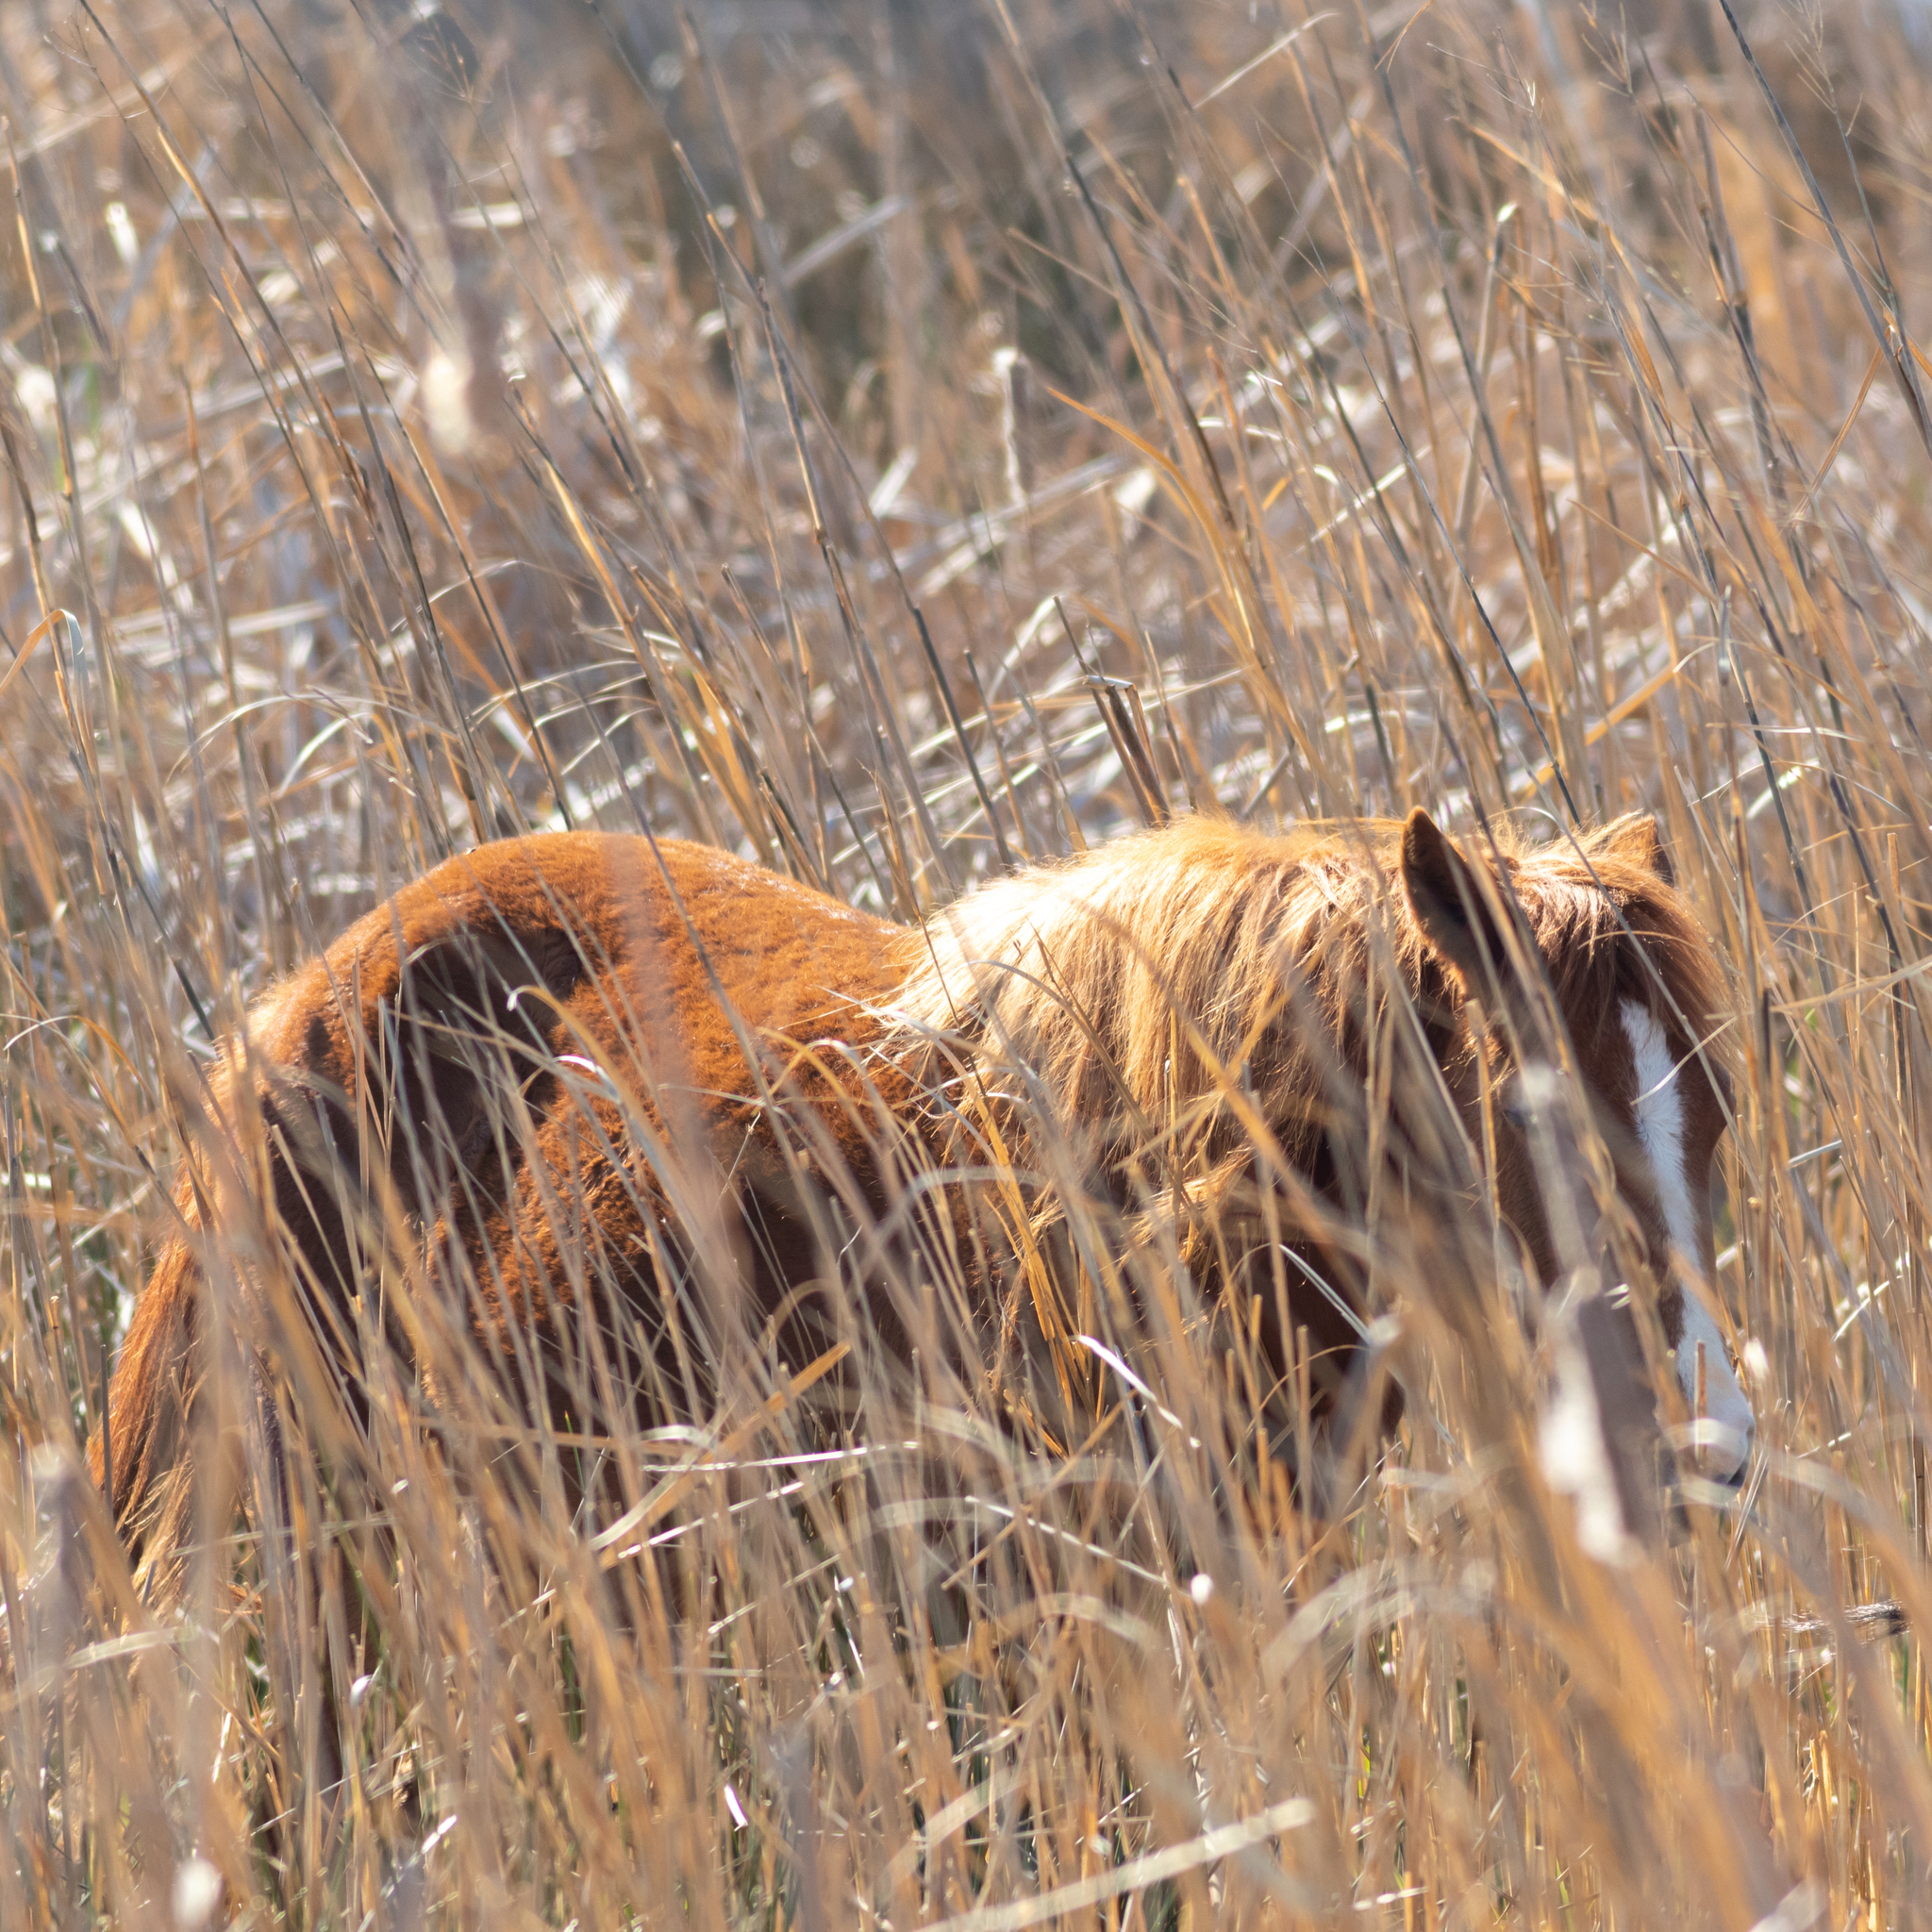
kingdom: Animalia
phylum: Chordata
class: Mammalia
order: Perissodactyla
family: Equidae
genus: Equus
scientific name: Equus caballus
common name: Horse
